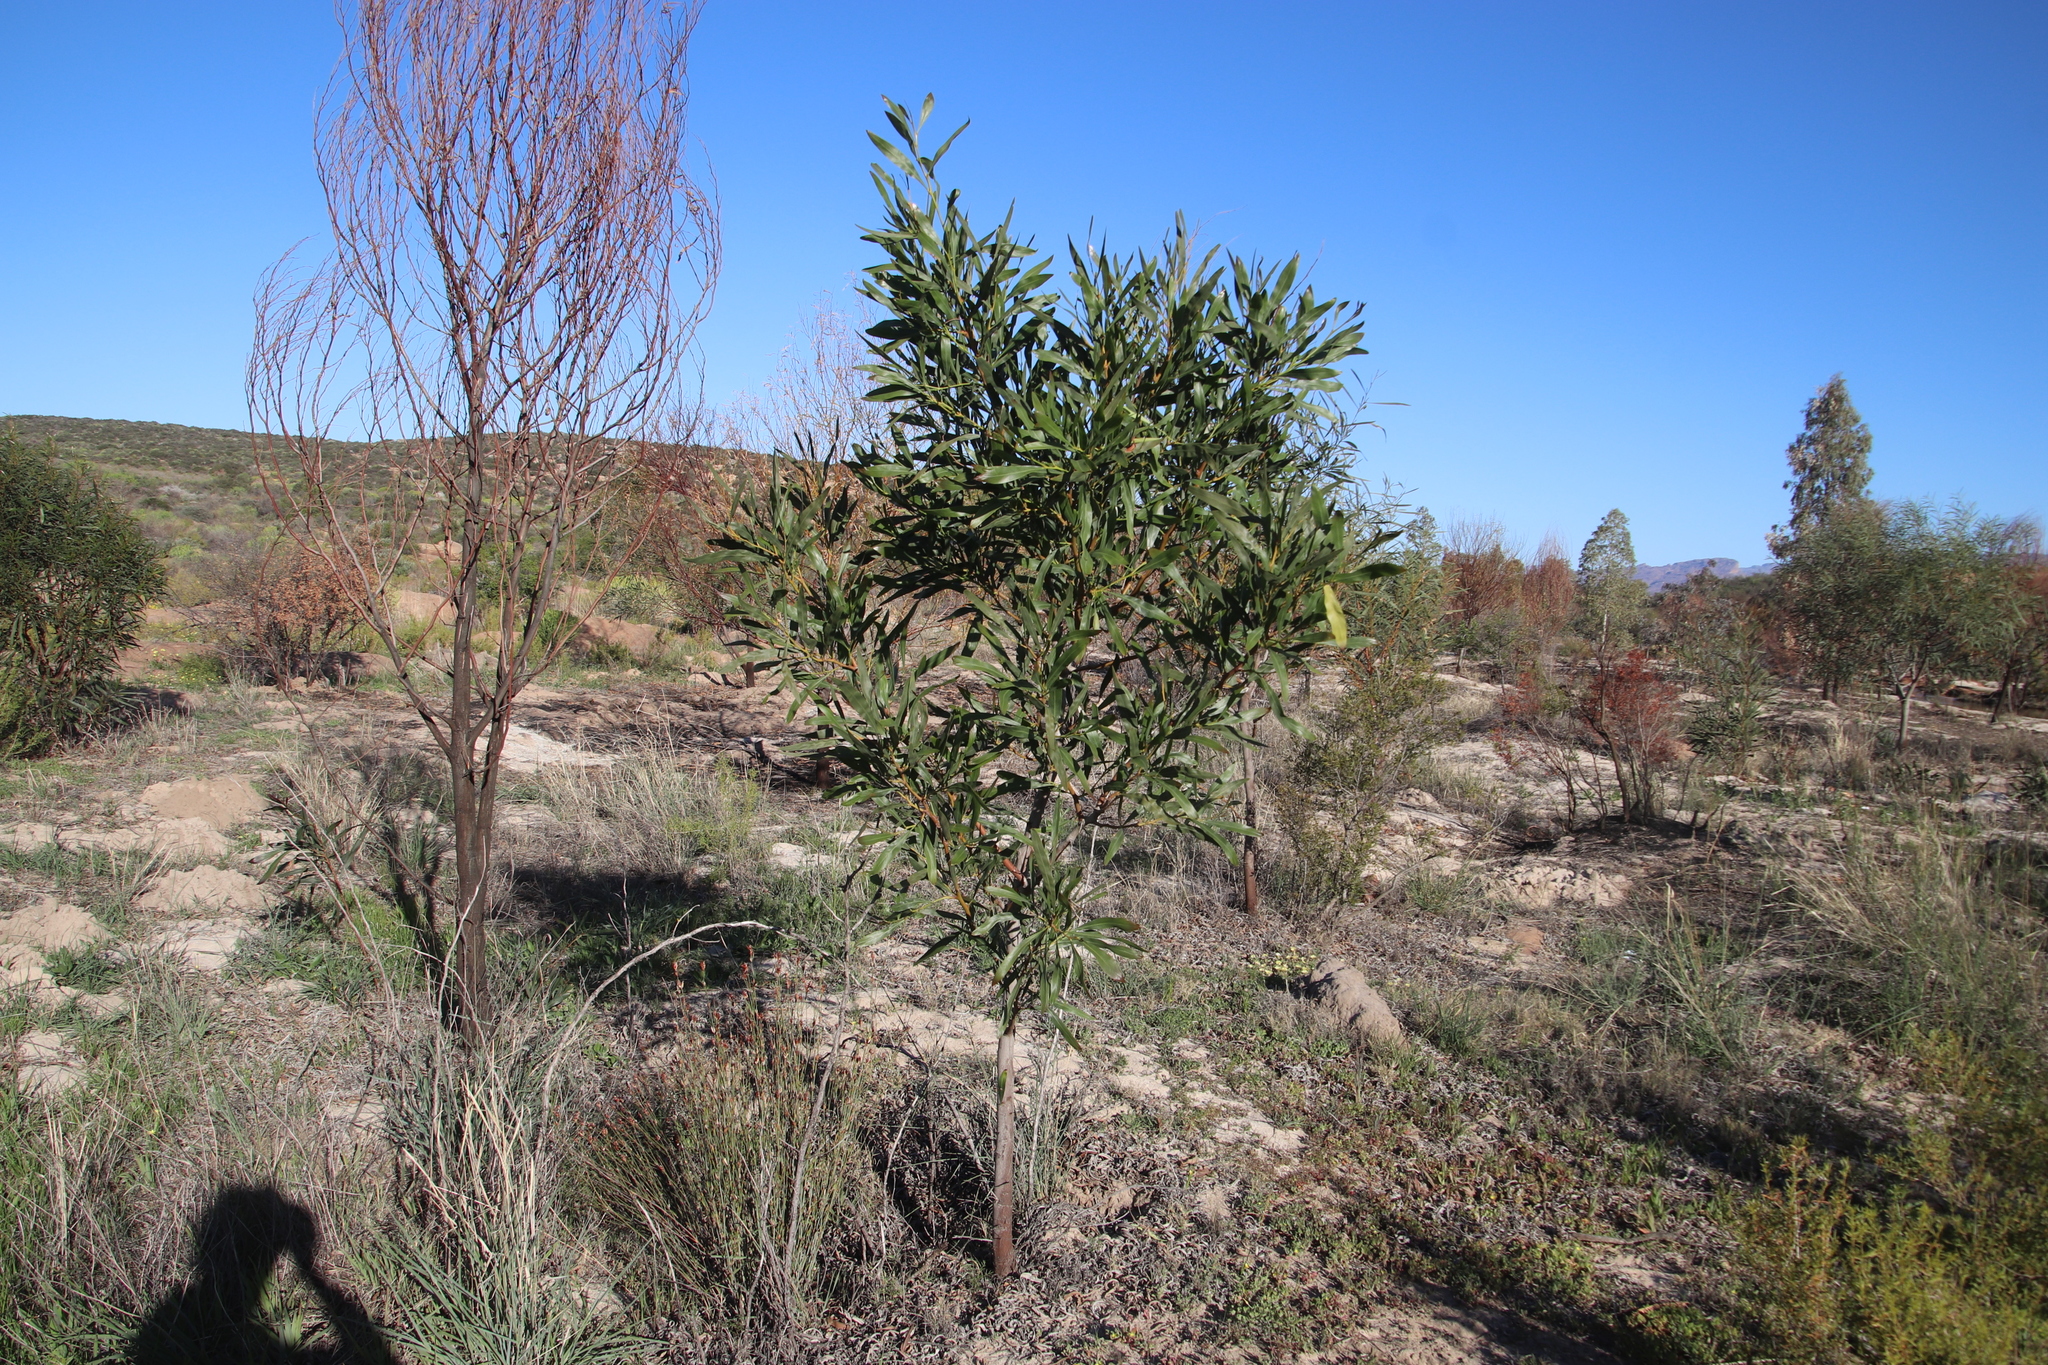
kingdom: Plantae
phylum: Tracheophyta
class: Magnoliopsida
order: Fabales
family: Fabaceae
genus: Acacia
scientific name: Acacia saligna
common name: Orange wattle
